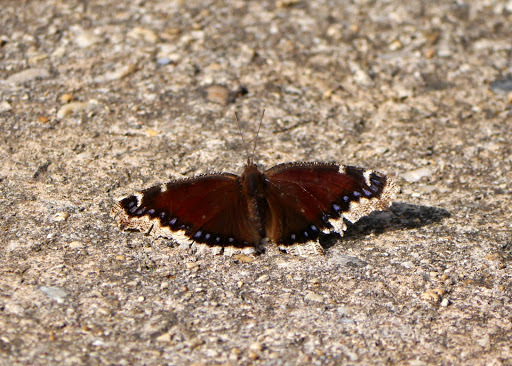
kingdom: Animalia
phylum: Arthropoda
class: Insecta
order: Lepidoptera
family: Nymphalidae
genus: Nymphalis
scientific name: Nymphalis antiopa
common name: Camberwell beauty
